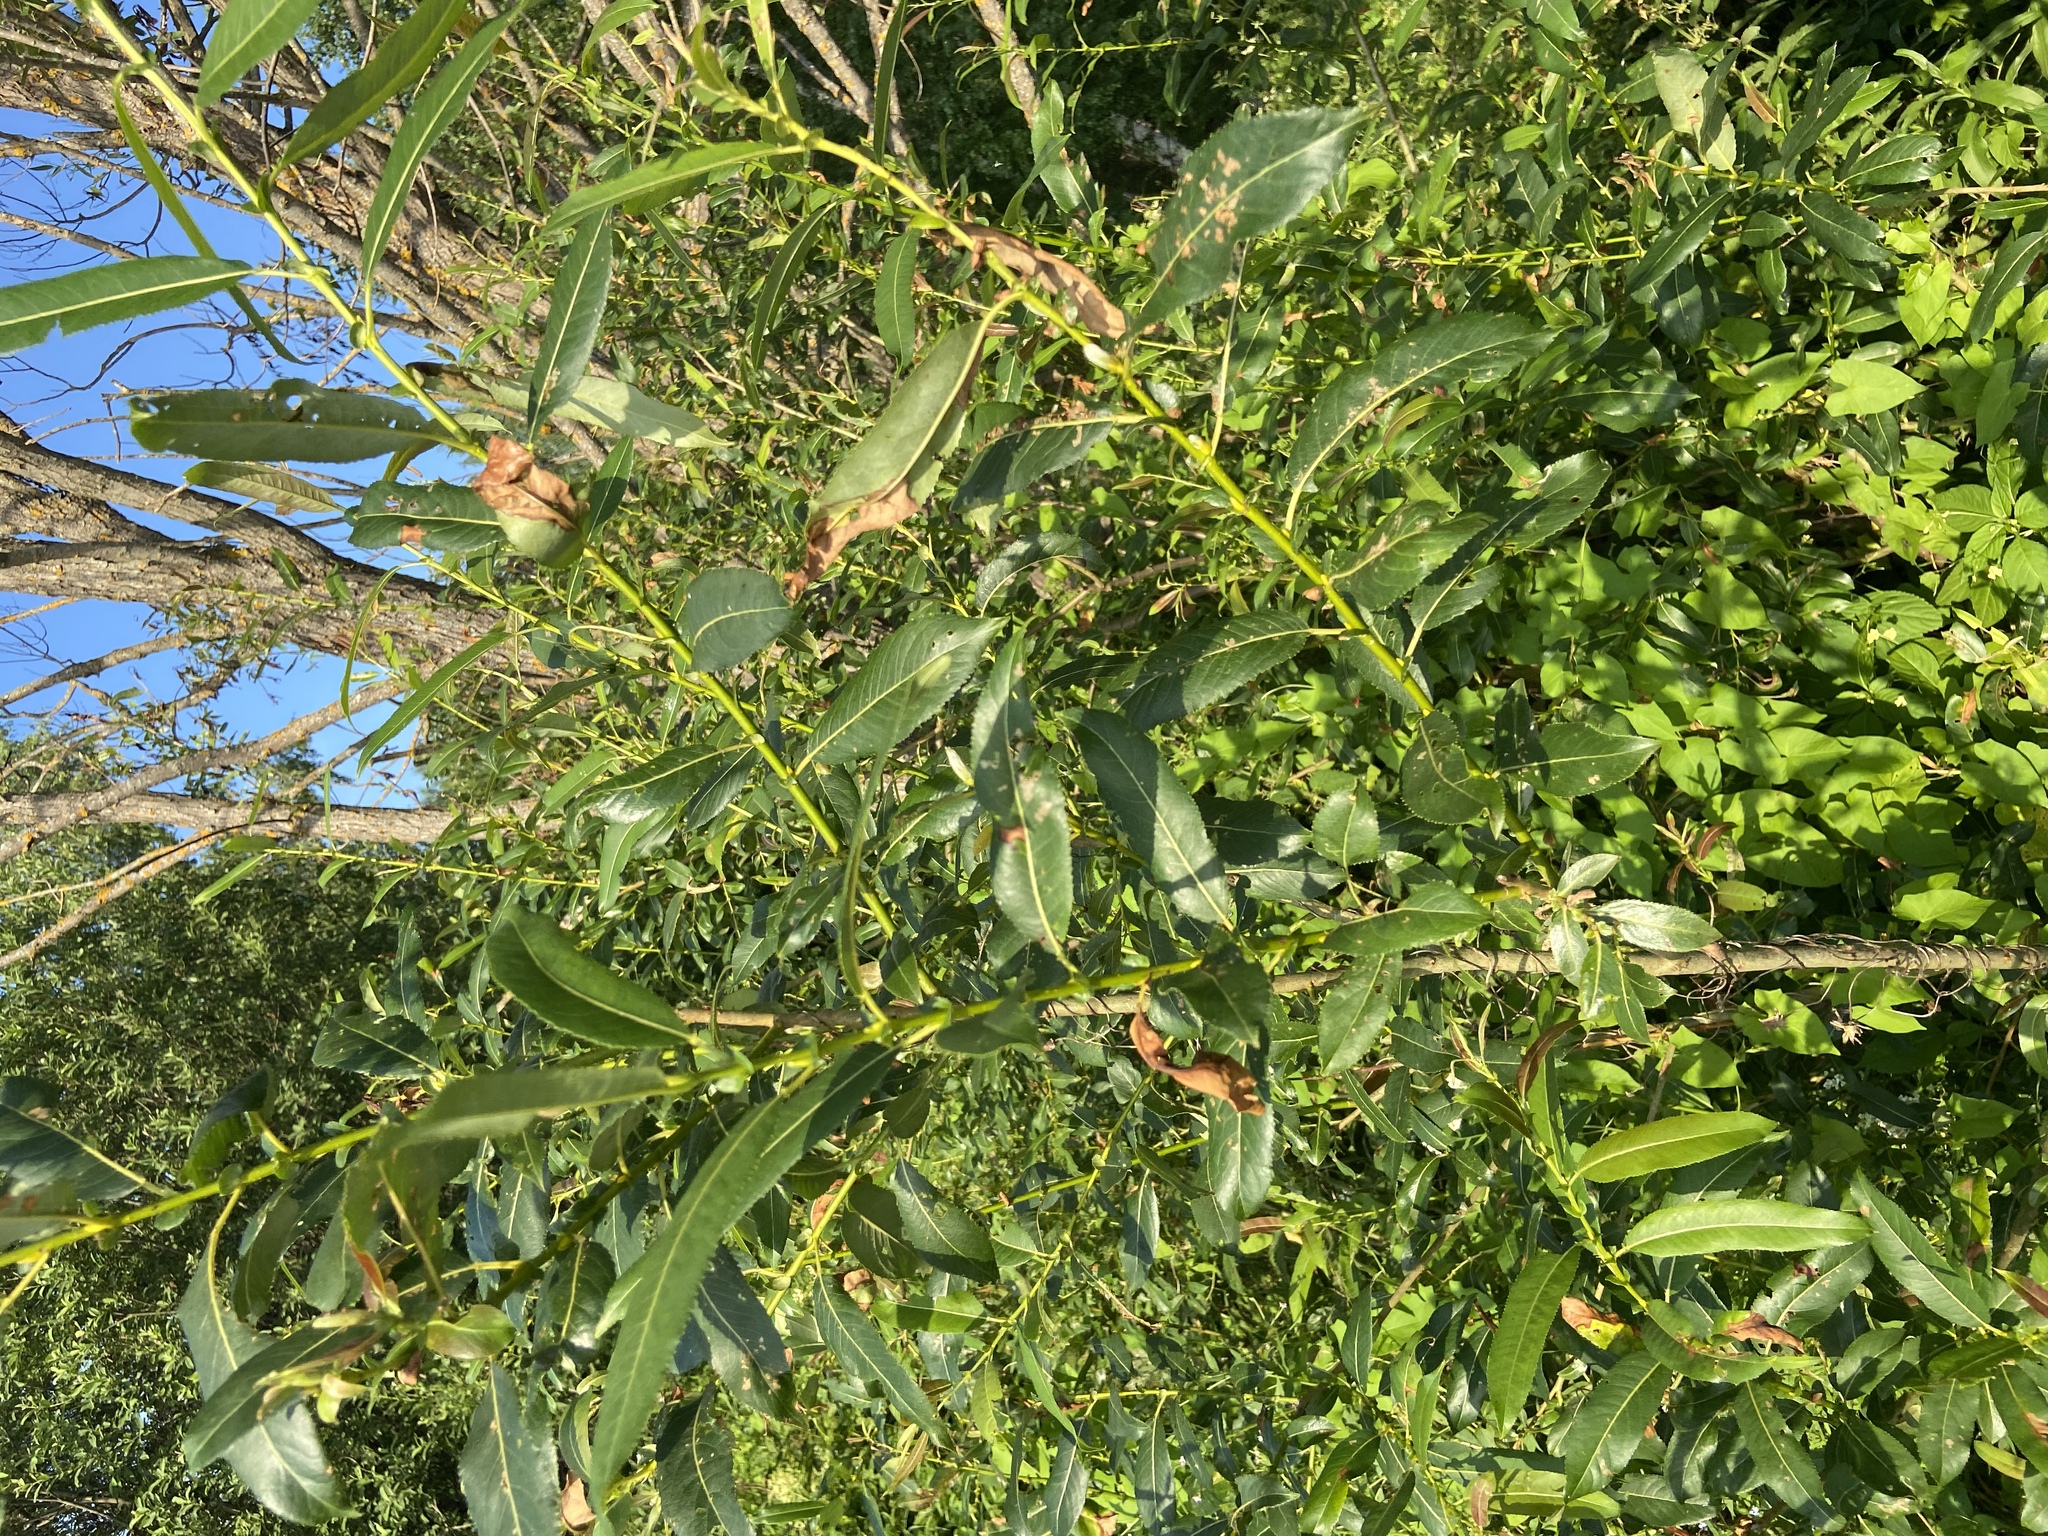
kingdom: Plantae
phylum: Tracheophyta
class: Magnoliopsida
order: Malpighiales
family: Salicaceae
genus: Salix
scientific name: Salix triandra
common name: Almond willow
